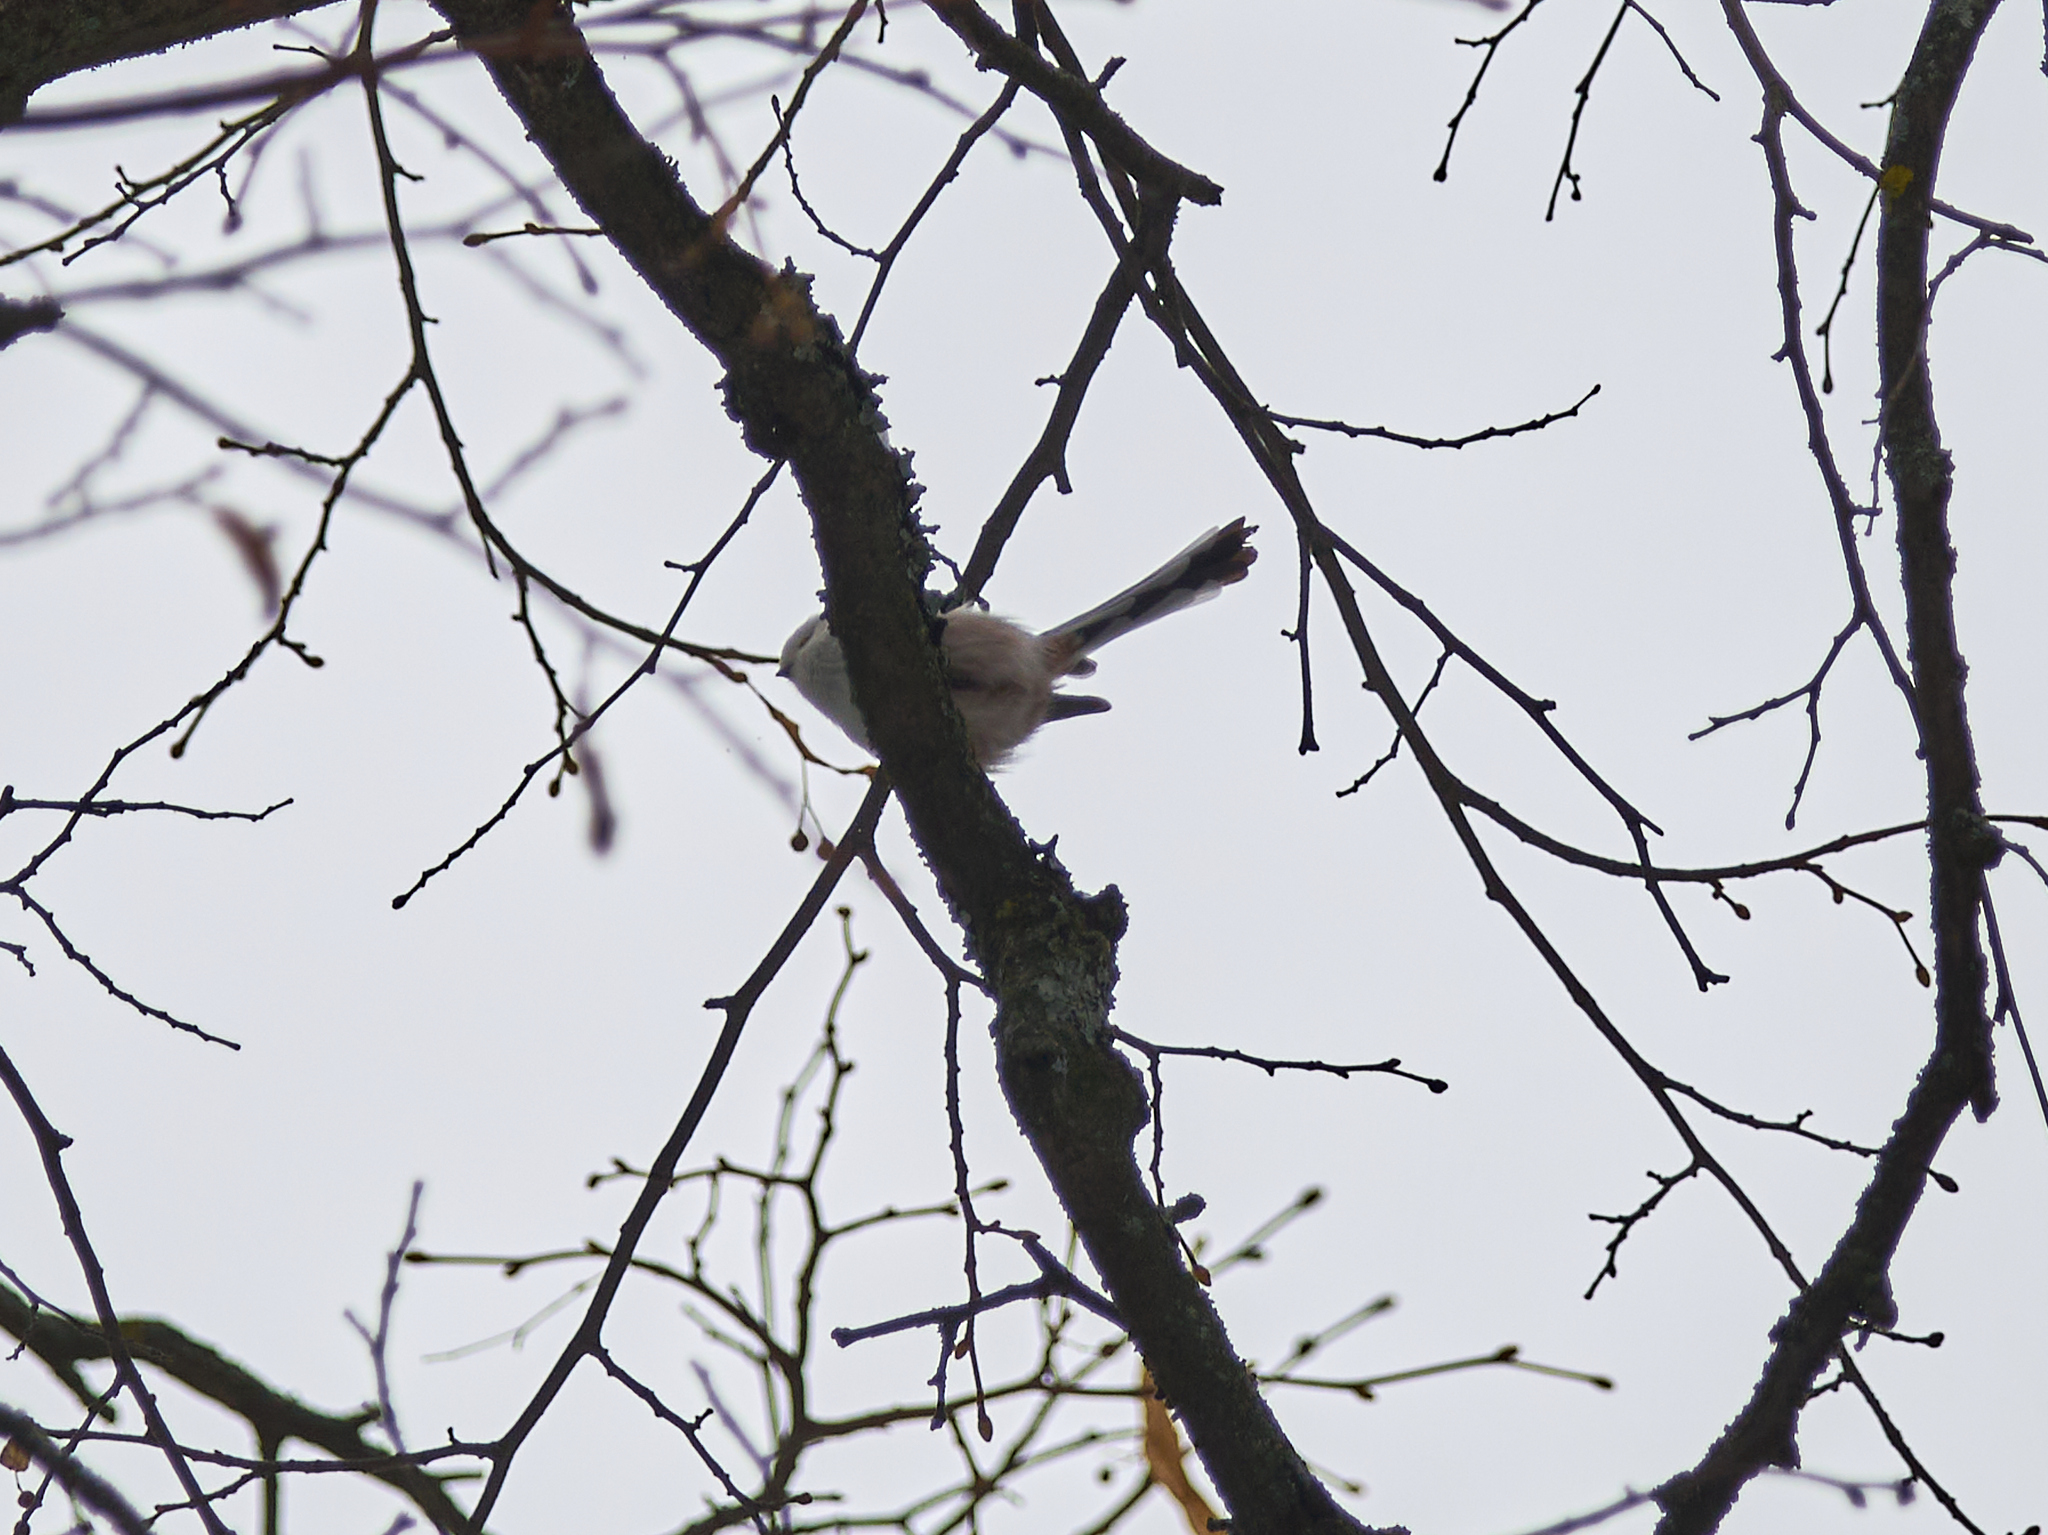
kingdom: Animalia
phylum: Chordata
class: Aves
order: Passeriformes
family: Aegithalidae
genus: Aegithalos
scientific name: Aegithalos caudatus
